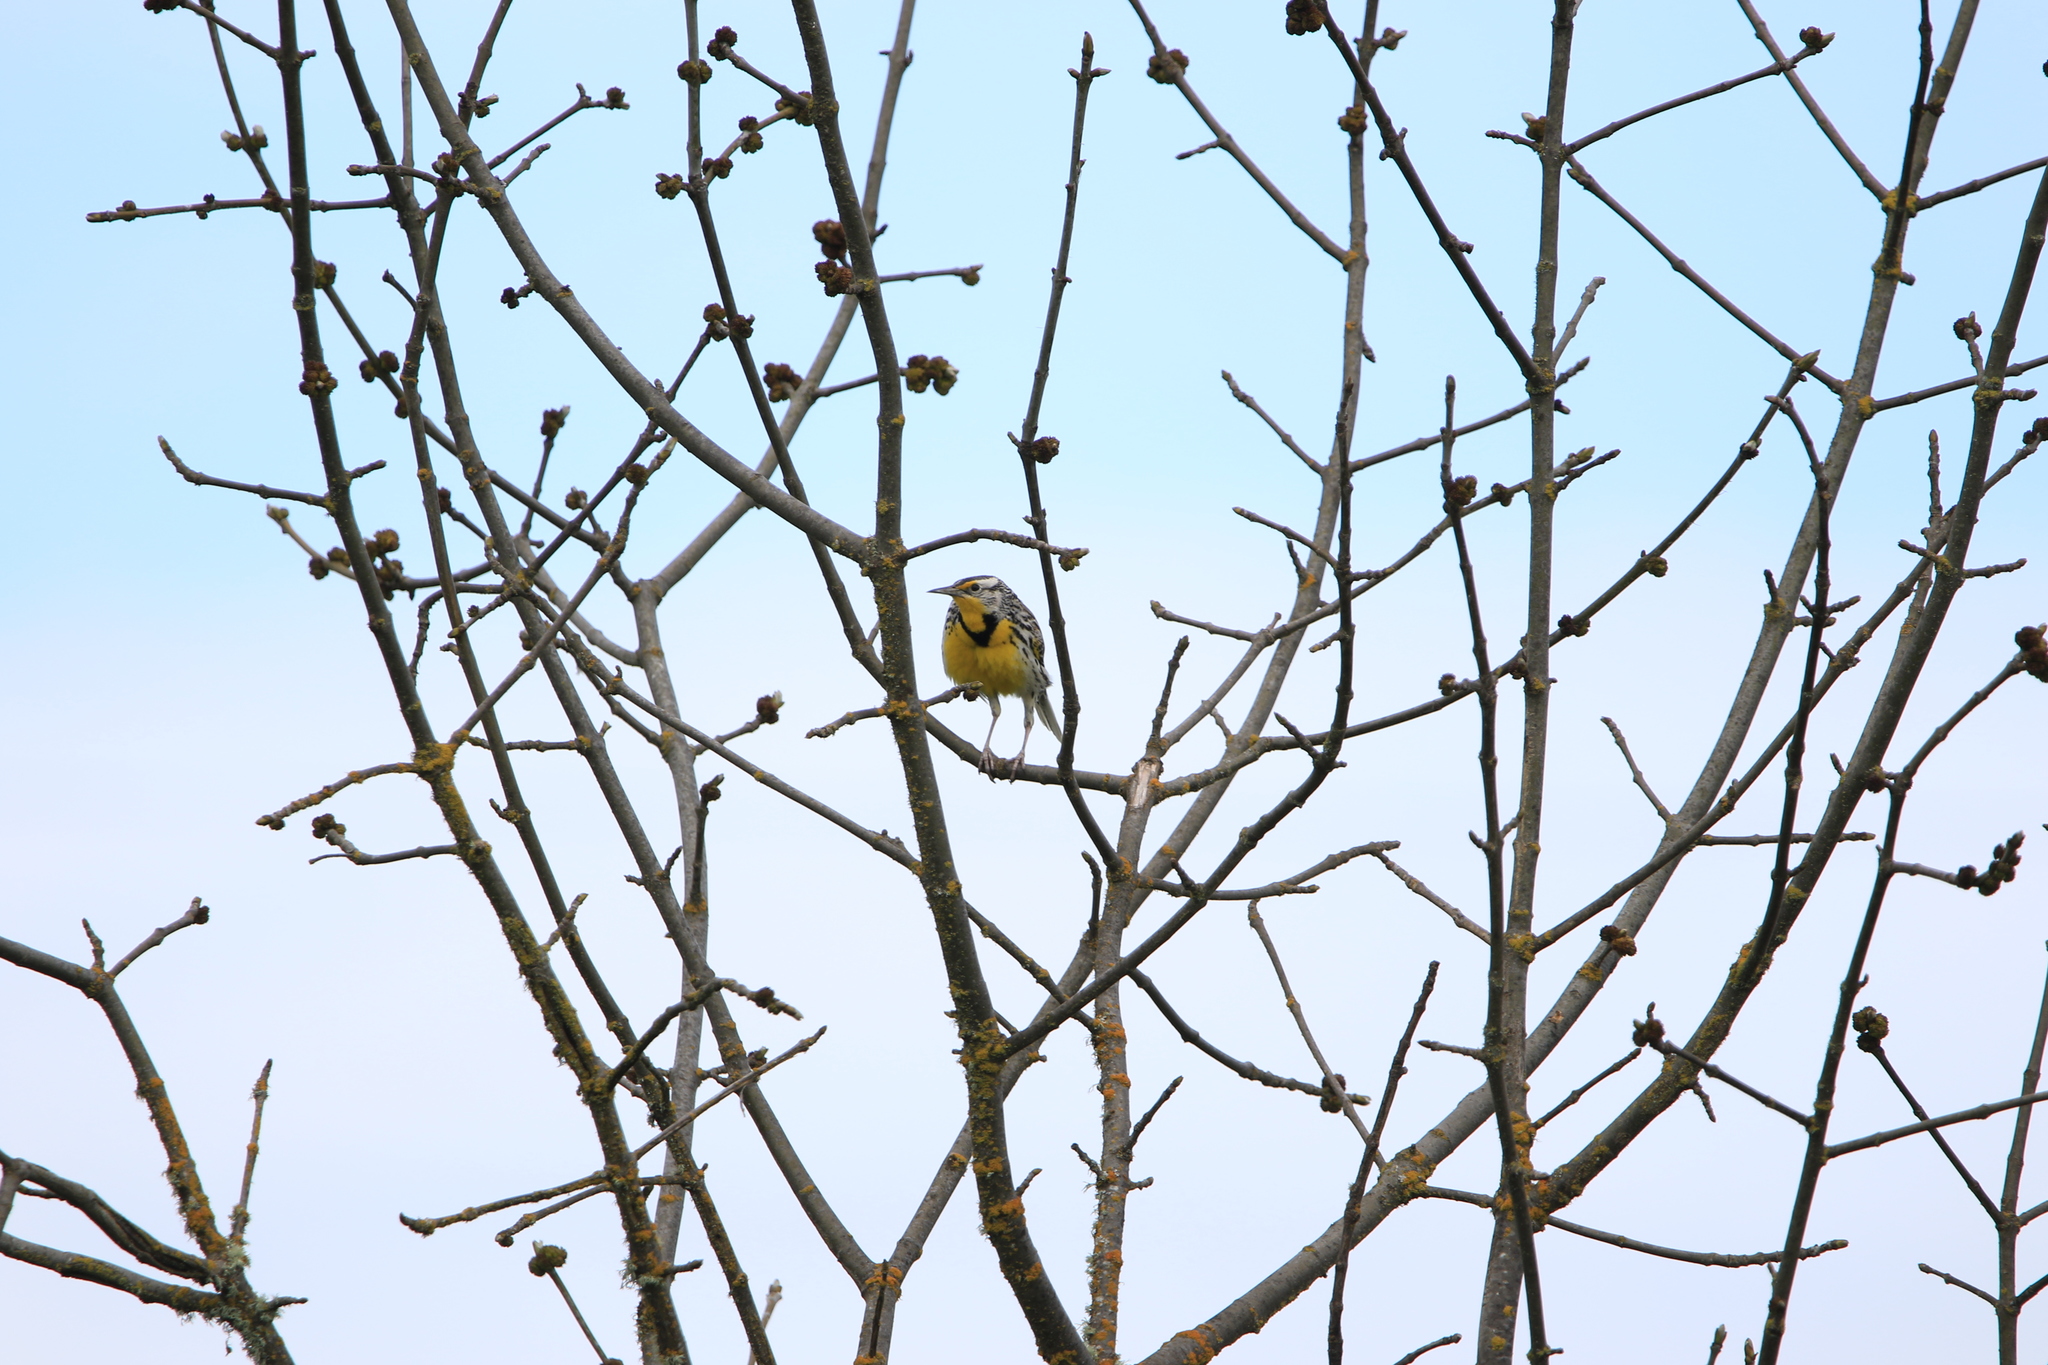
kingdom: Animalia
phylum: Chordata
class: Aves
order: Passeriformes
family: Icteridae
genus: Sturnella
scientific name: Sturnella neglecta
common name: Western meadowlark
